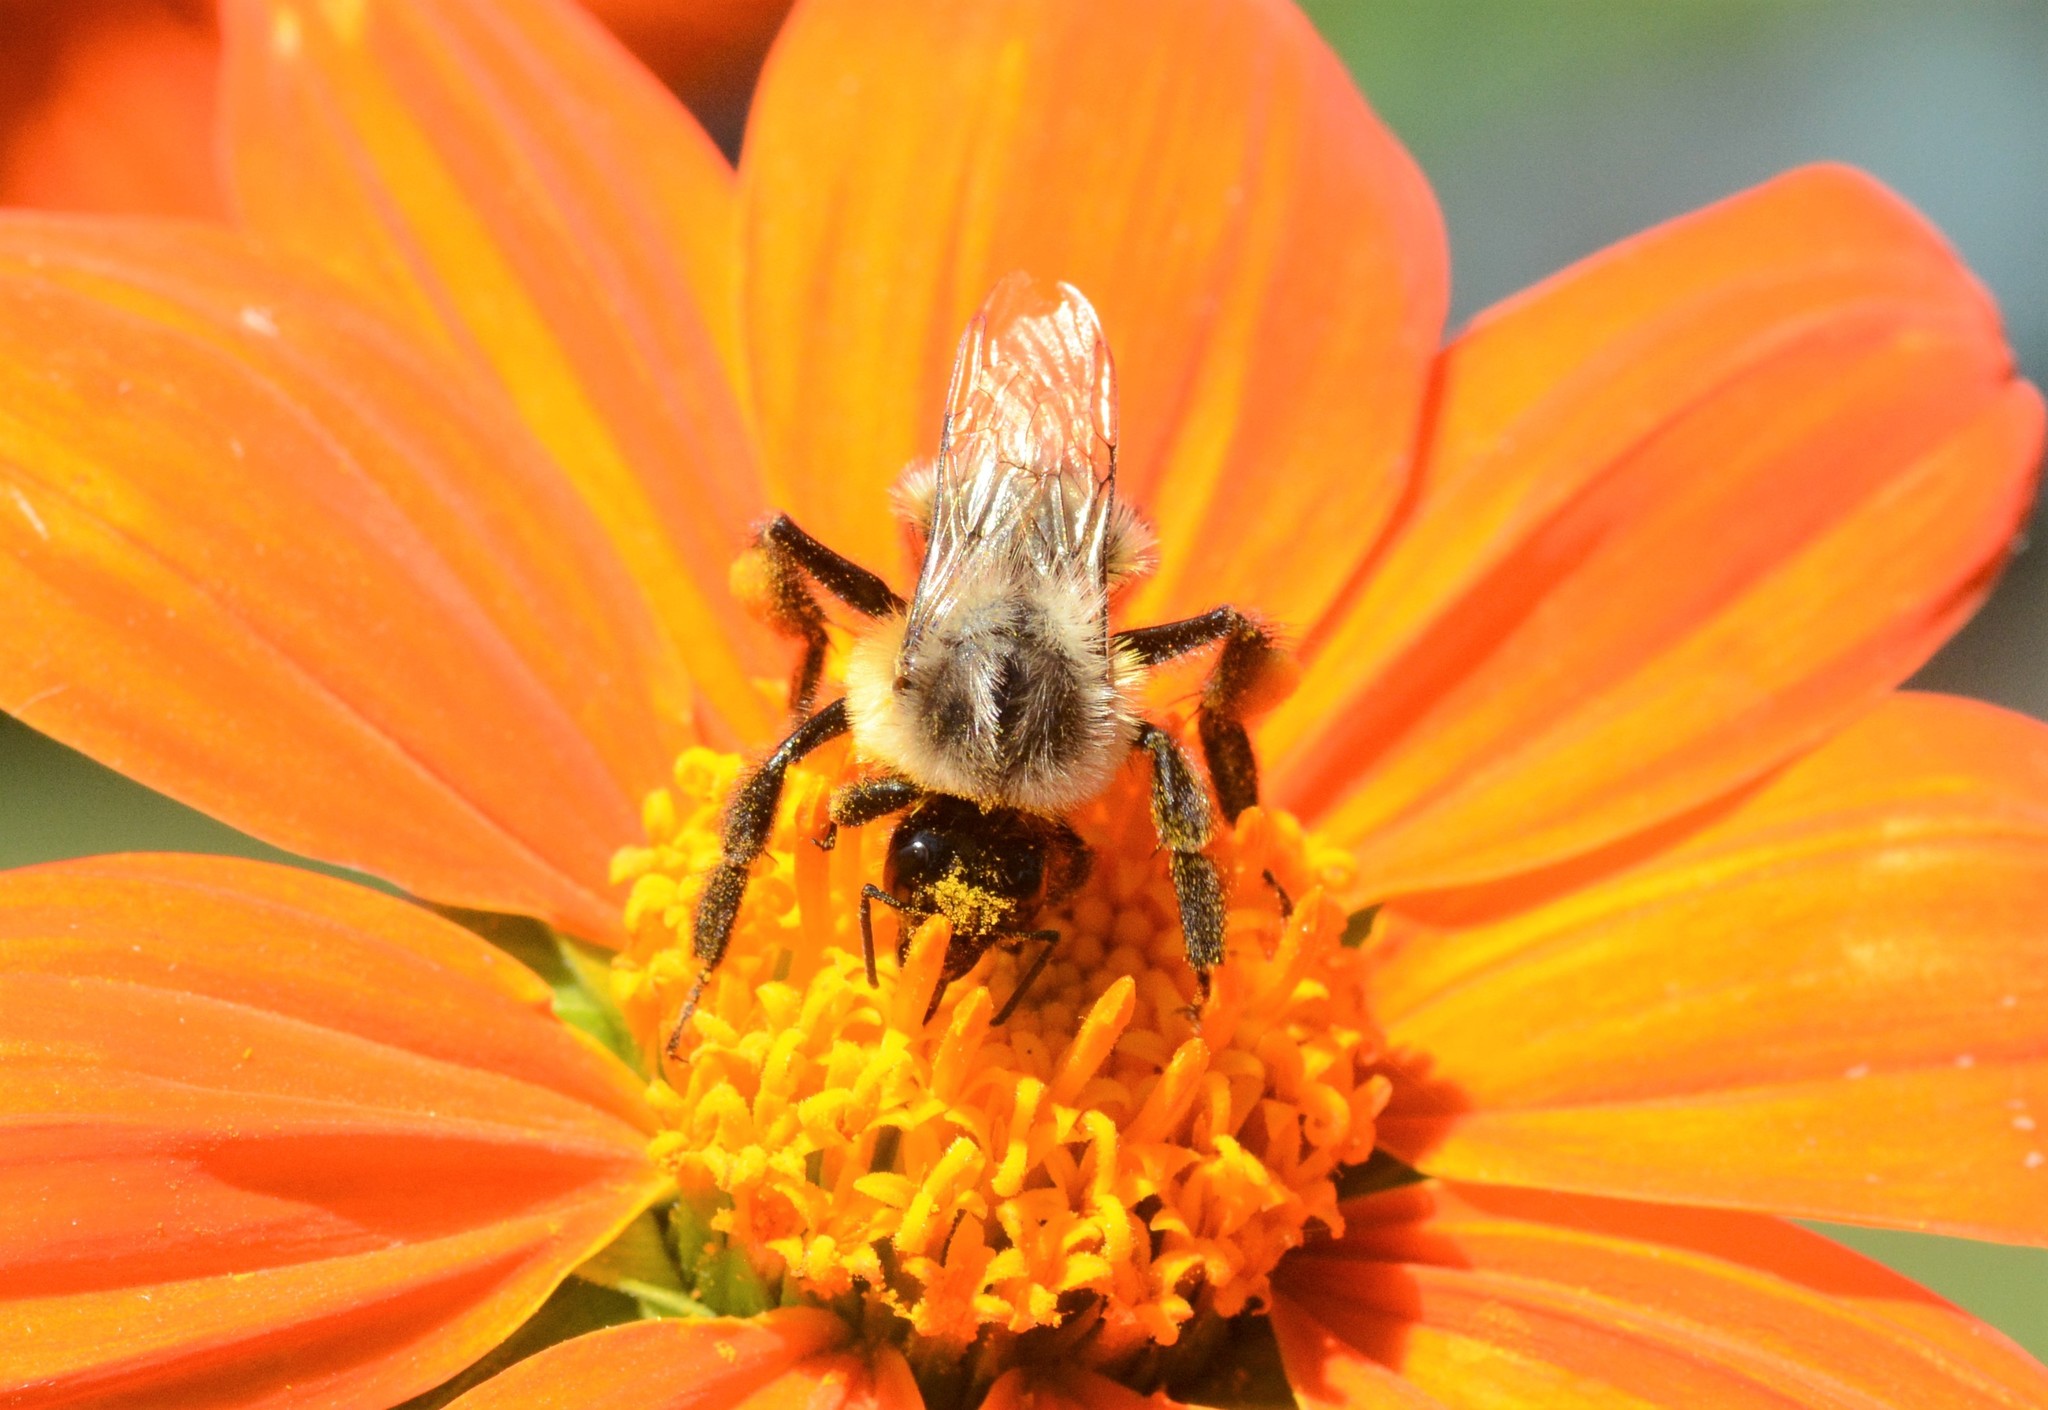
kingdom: Animalia
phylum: Arthropoda
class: Insecta
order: Hymenoptera
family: Apidae
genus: Bombus
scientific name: Bombus impatiens
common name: Common eastern bumble bee
